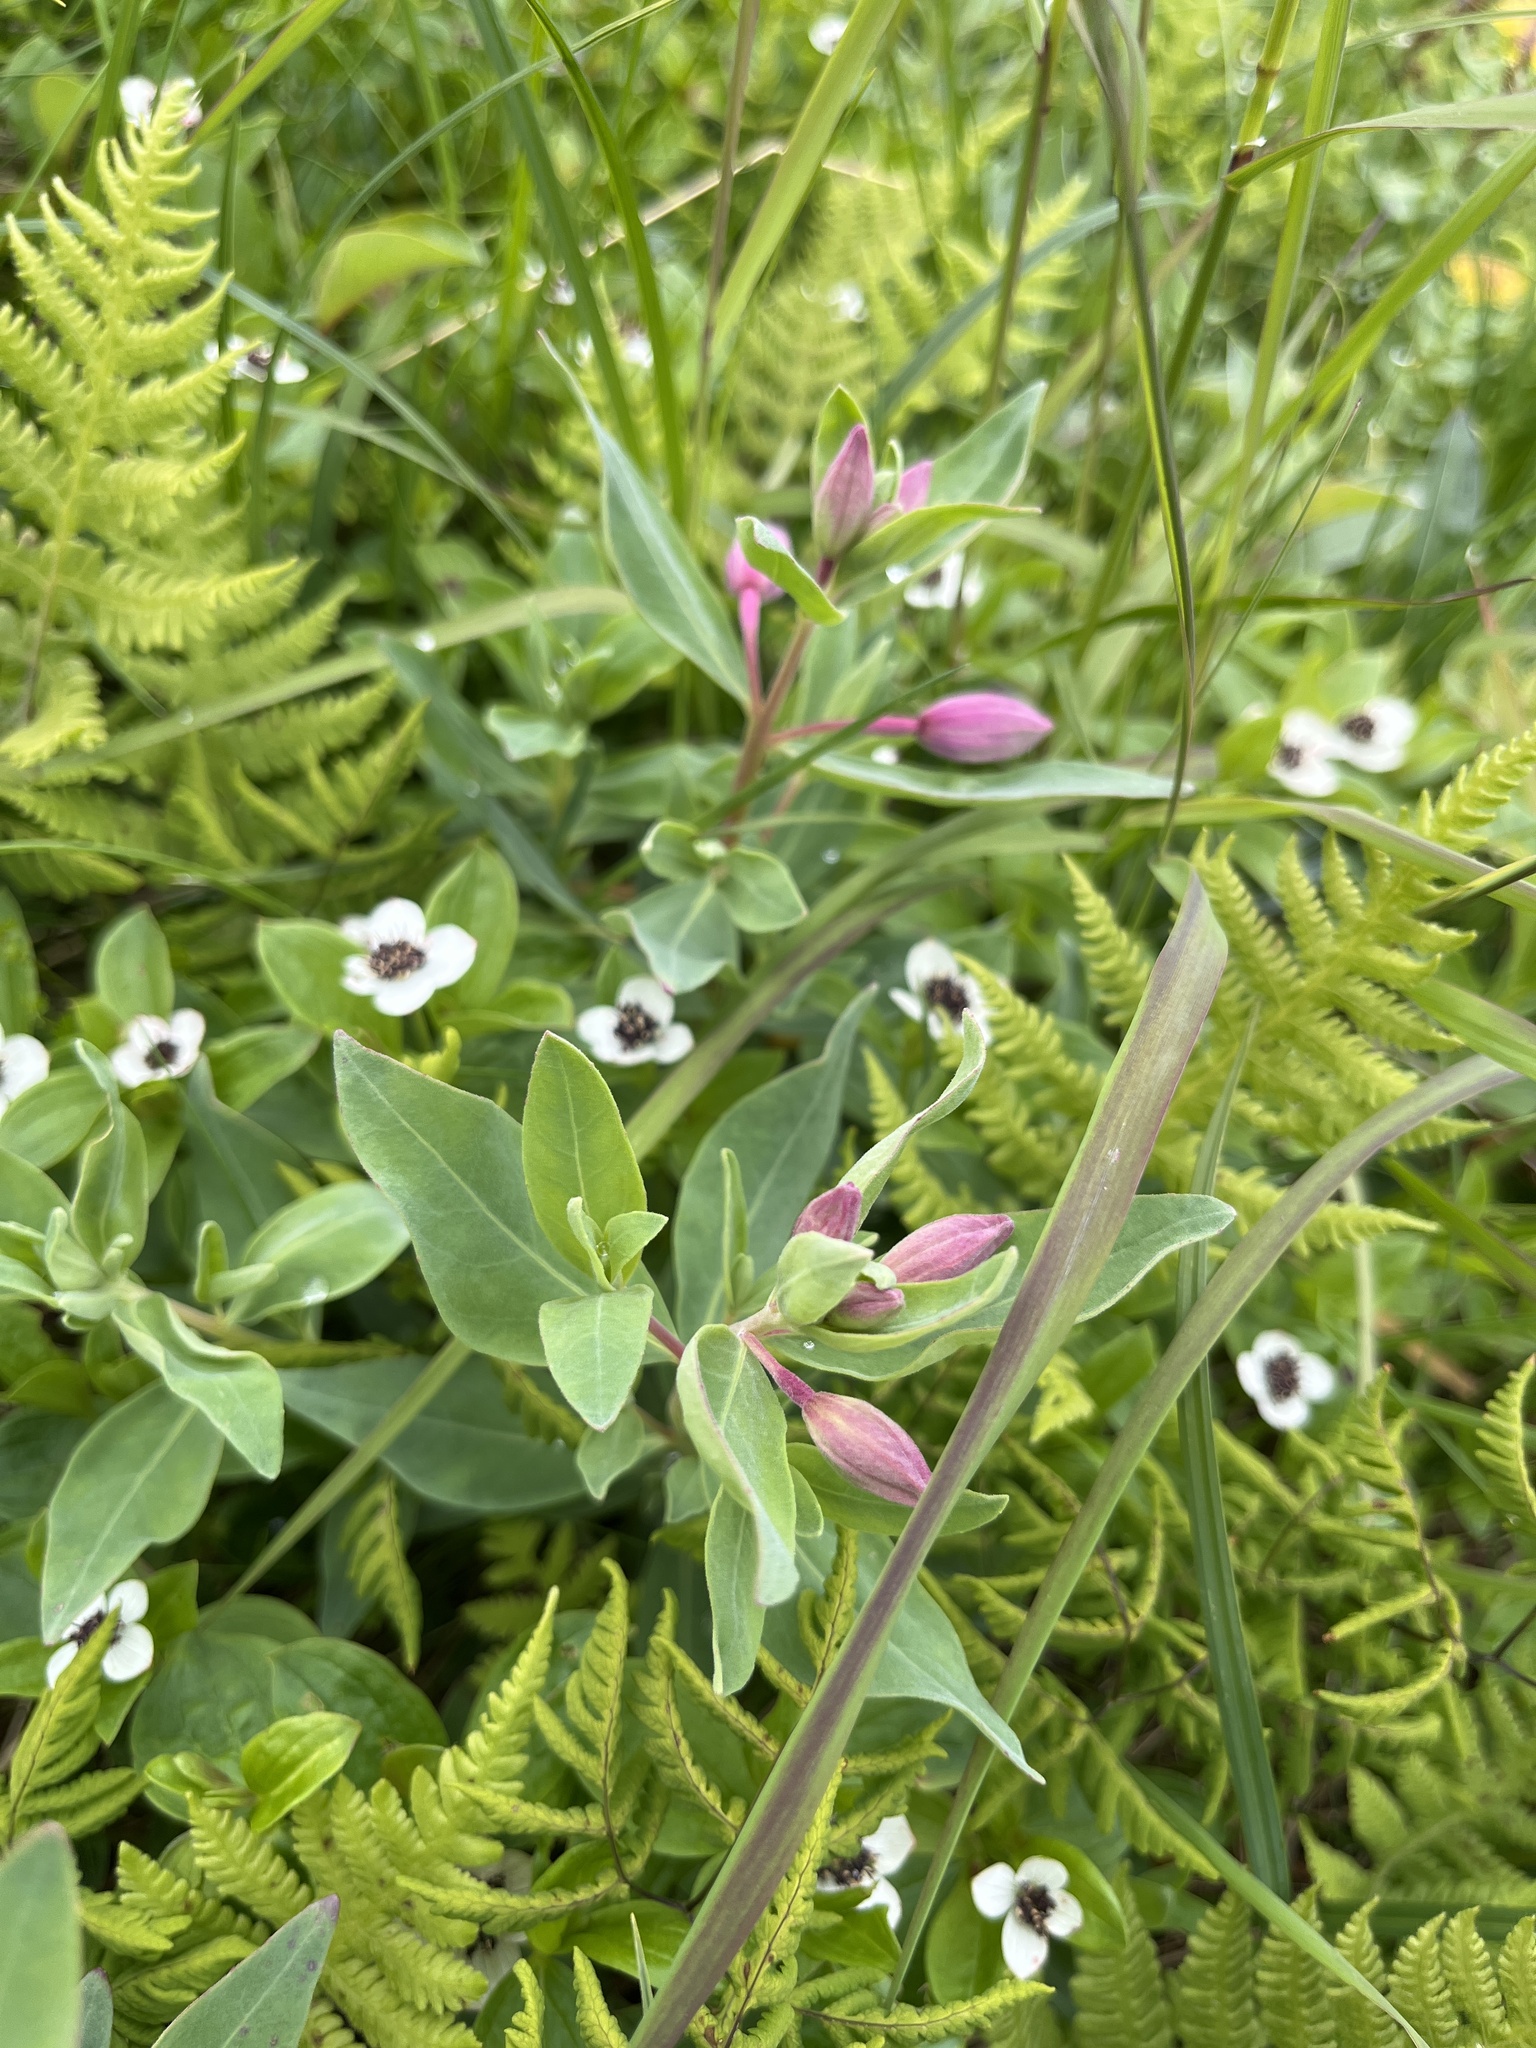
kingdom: Plantae
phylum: Tracheophyta
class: Magnoliopsida
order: Myrtales
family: Onagraceae
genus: Chamaenerion
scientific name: Chamaenerion latifolium
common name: Dwarf fireweed
